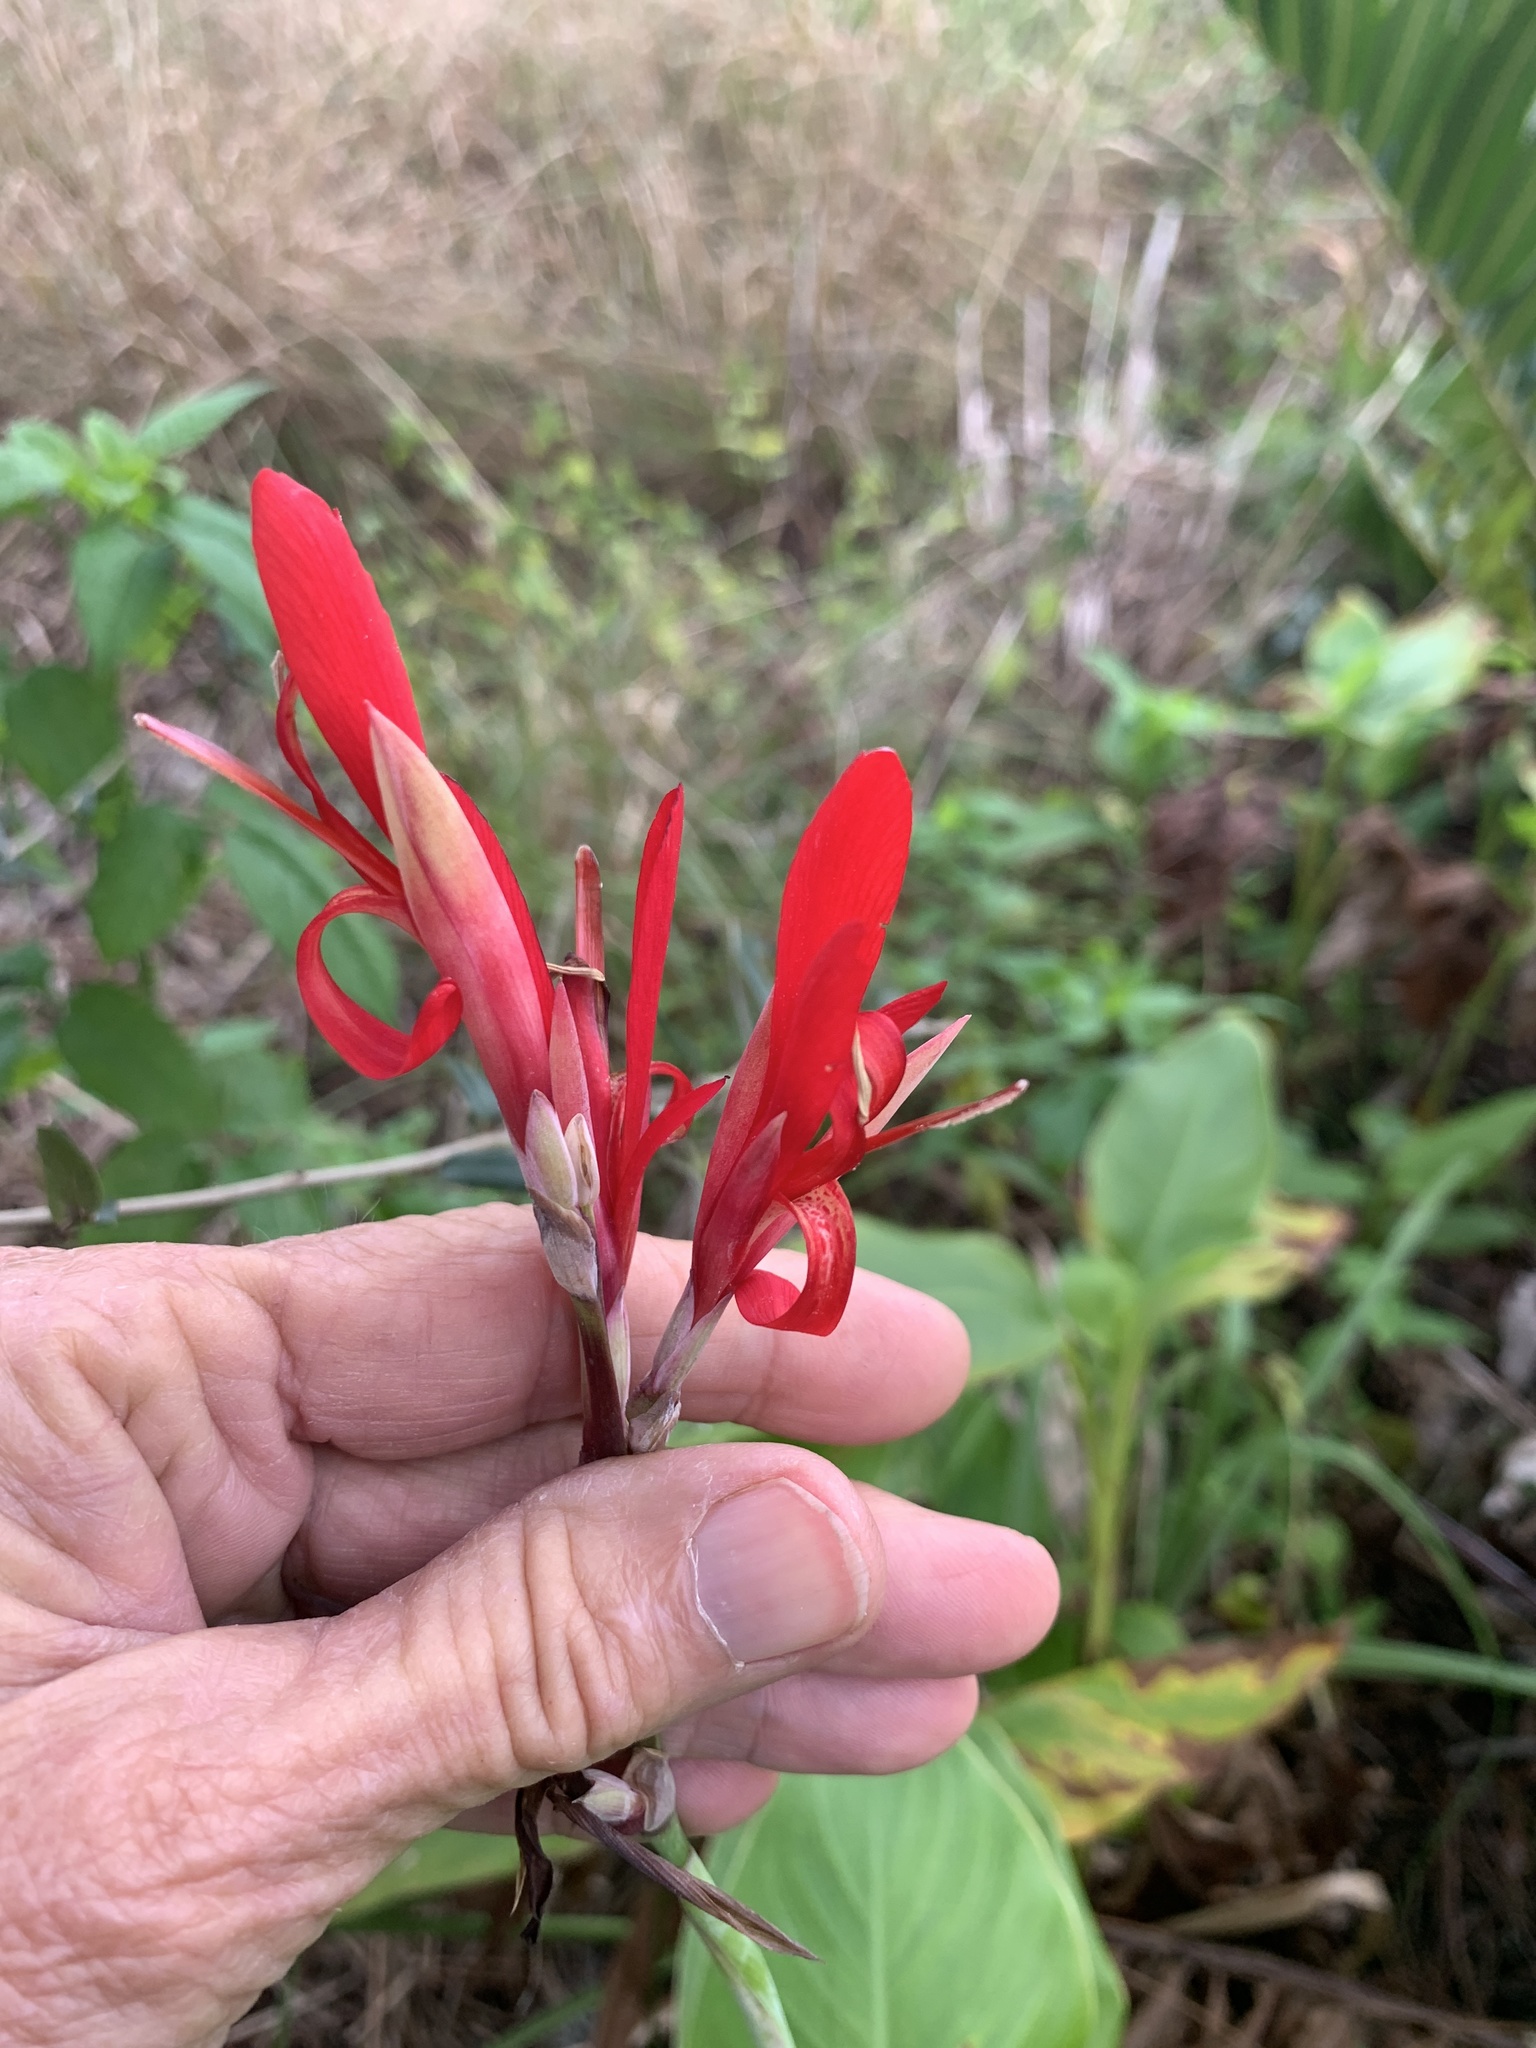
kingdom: Plantae
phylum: Tracheophyta
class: Liliopsida
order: Zingiberales
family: Cannaceae
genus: Canna
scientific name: Canna indica
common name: Indian shot
